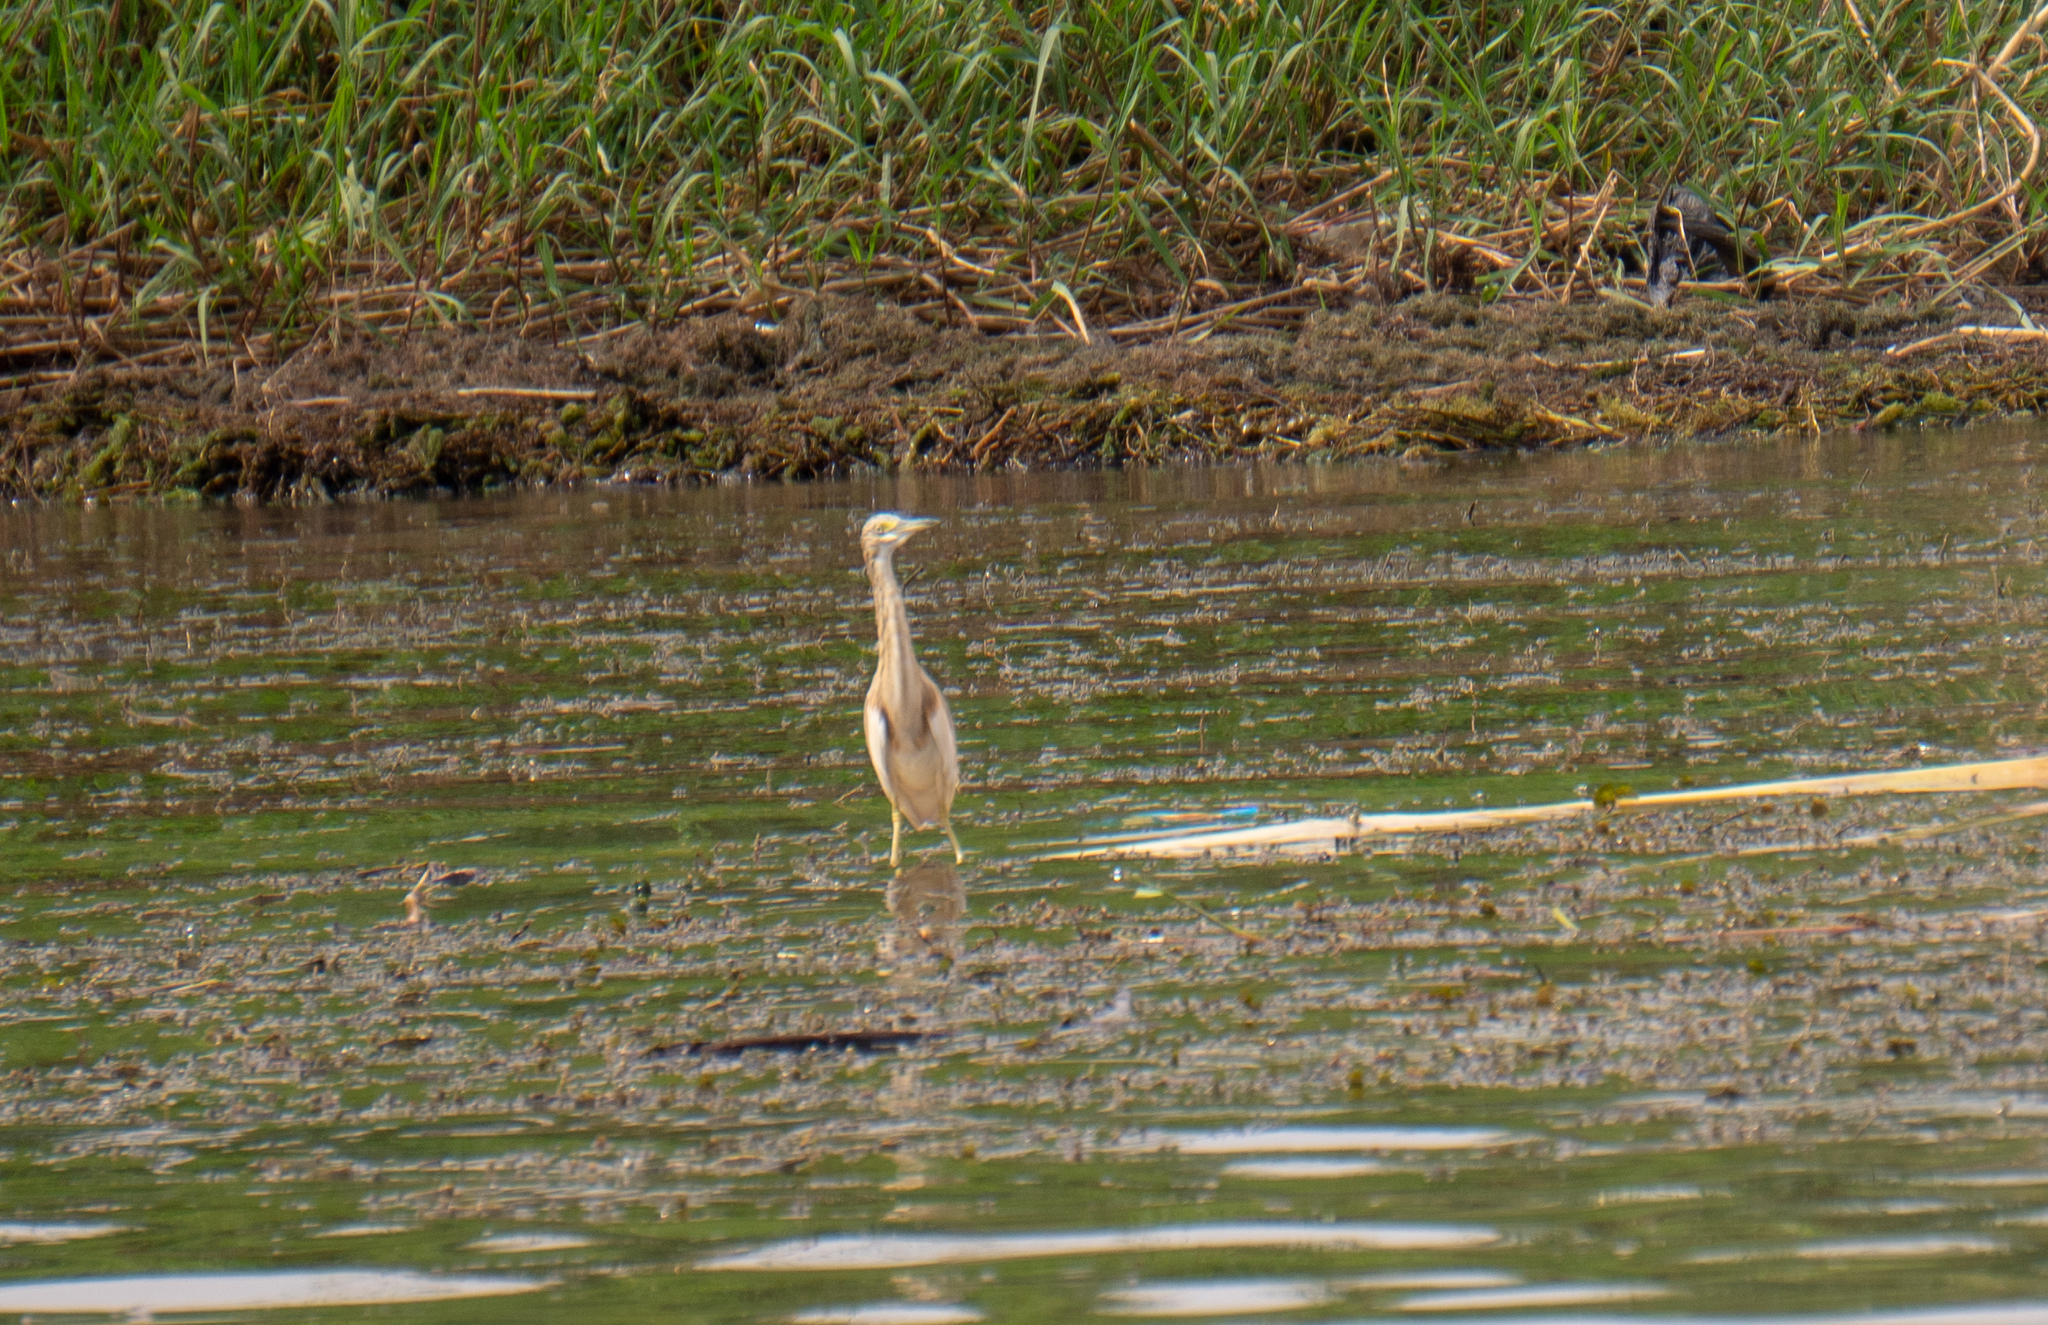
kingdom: Animalia
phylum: Chordata
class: Aves
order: Pelecaniformes
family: Ardeidae
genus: Ardeola
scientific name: Ardeola ralloides
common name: Squacco heron
